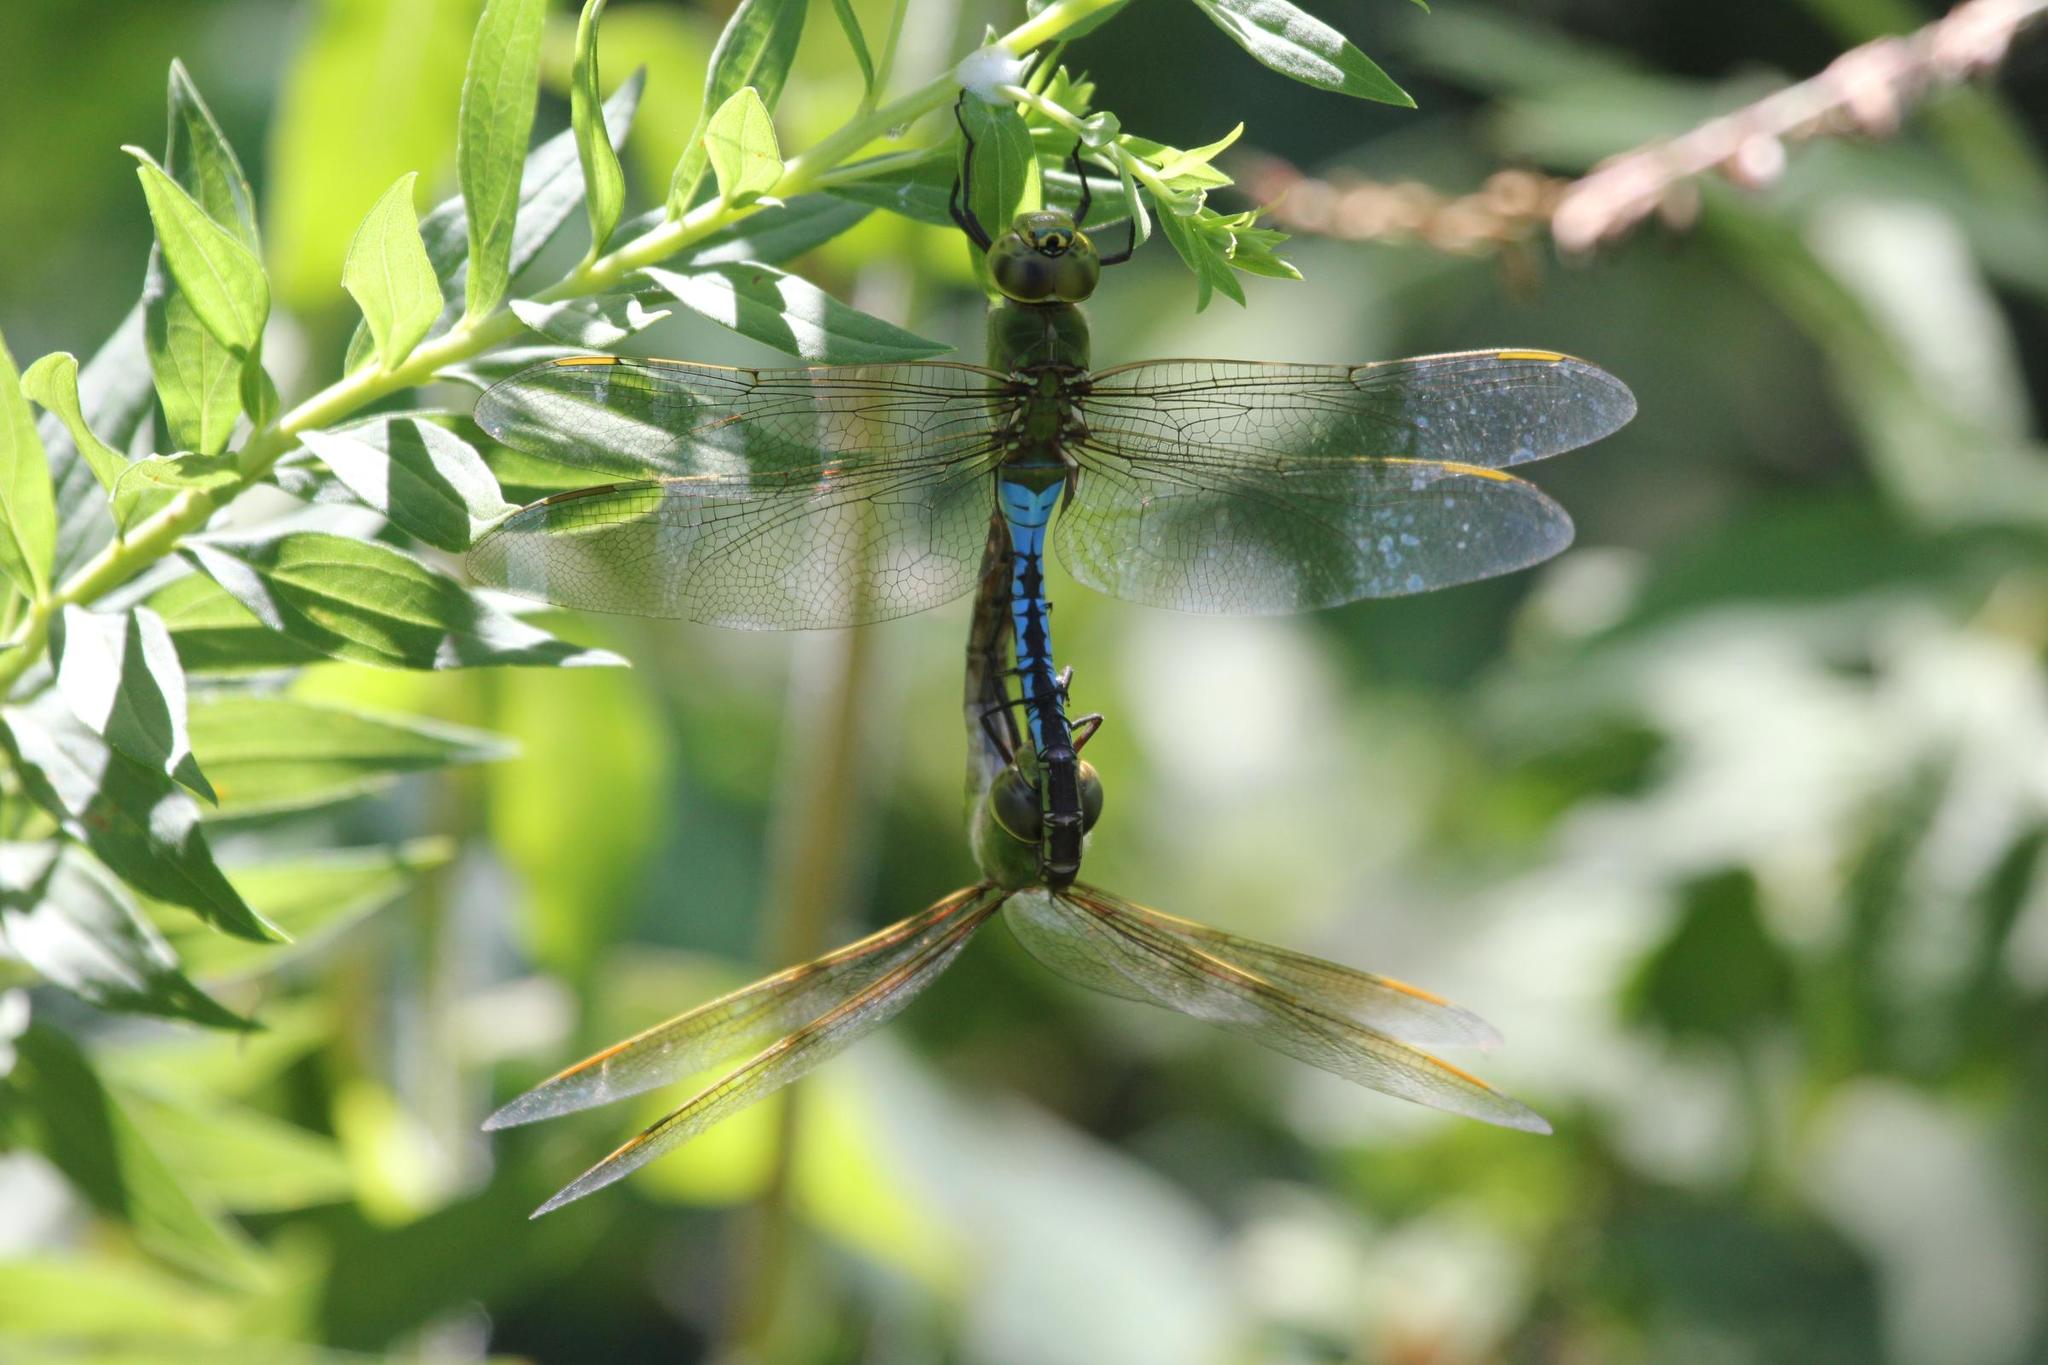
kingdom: Animalia
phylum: Arthropoda
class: Insecta
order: Odonata
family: Aeshnidae
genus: Anax
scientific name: Anax junius
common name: Common green darner
